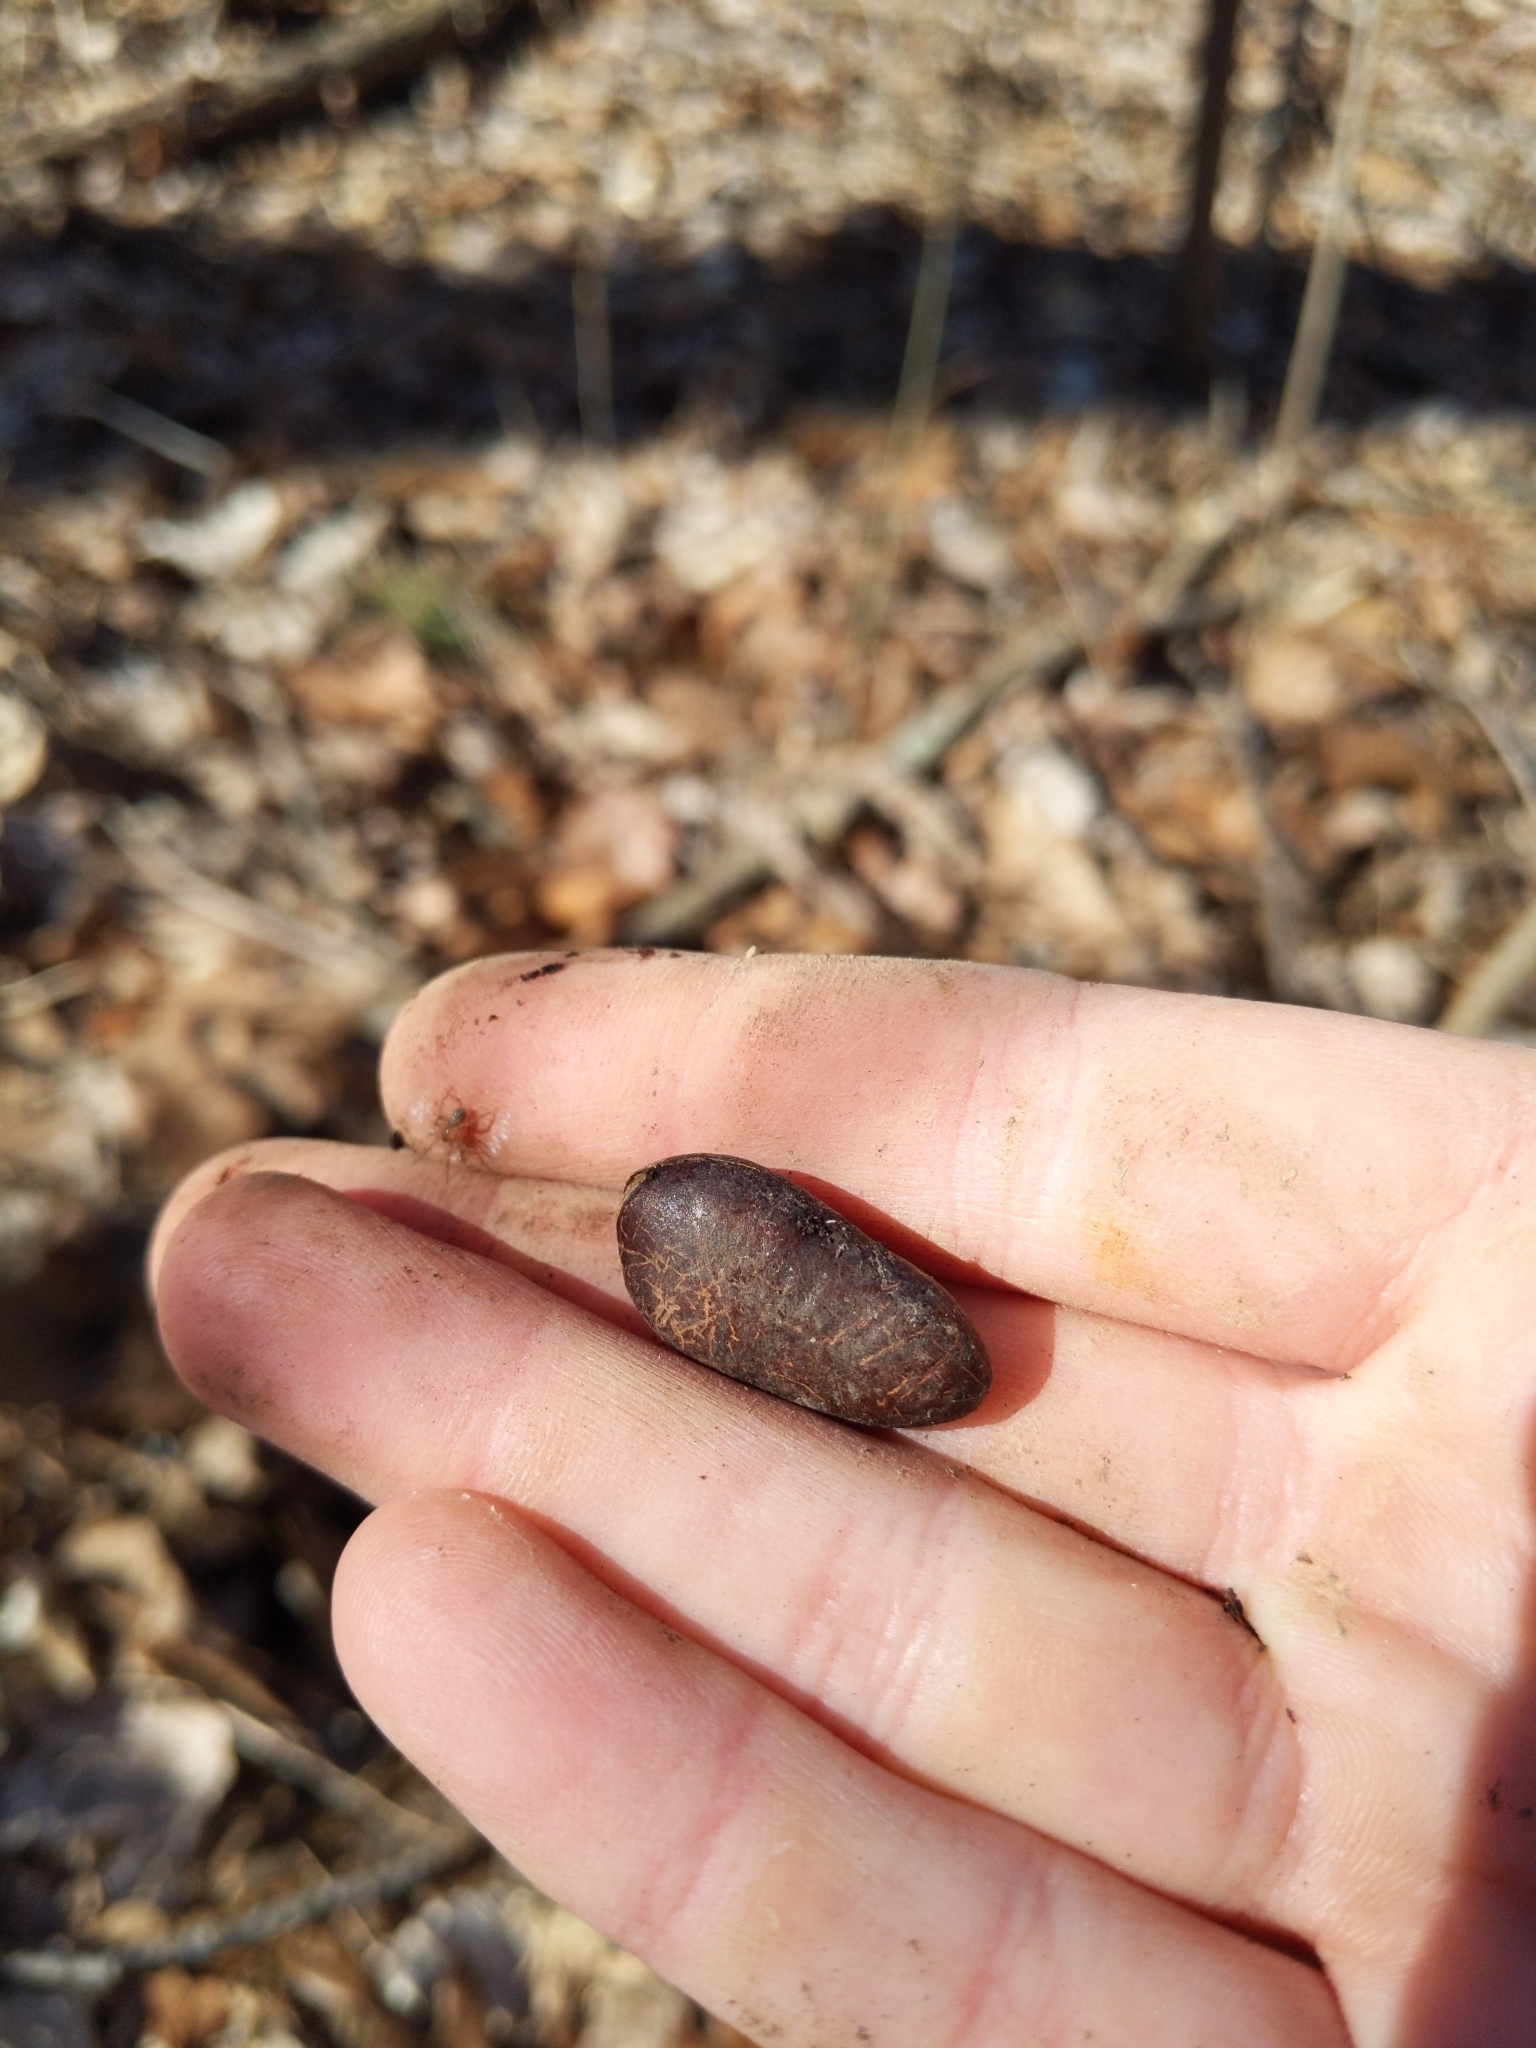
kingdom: Plantae
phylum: Tracheophyta
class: Magnoliopsida
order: Magnoliales
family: Annonaceae
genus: Asimina
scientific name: Asimina triloba
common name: Dog-banana
